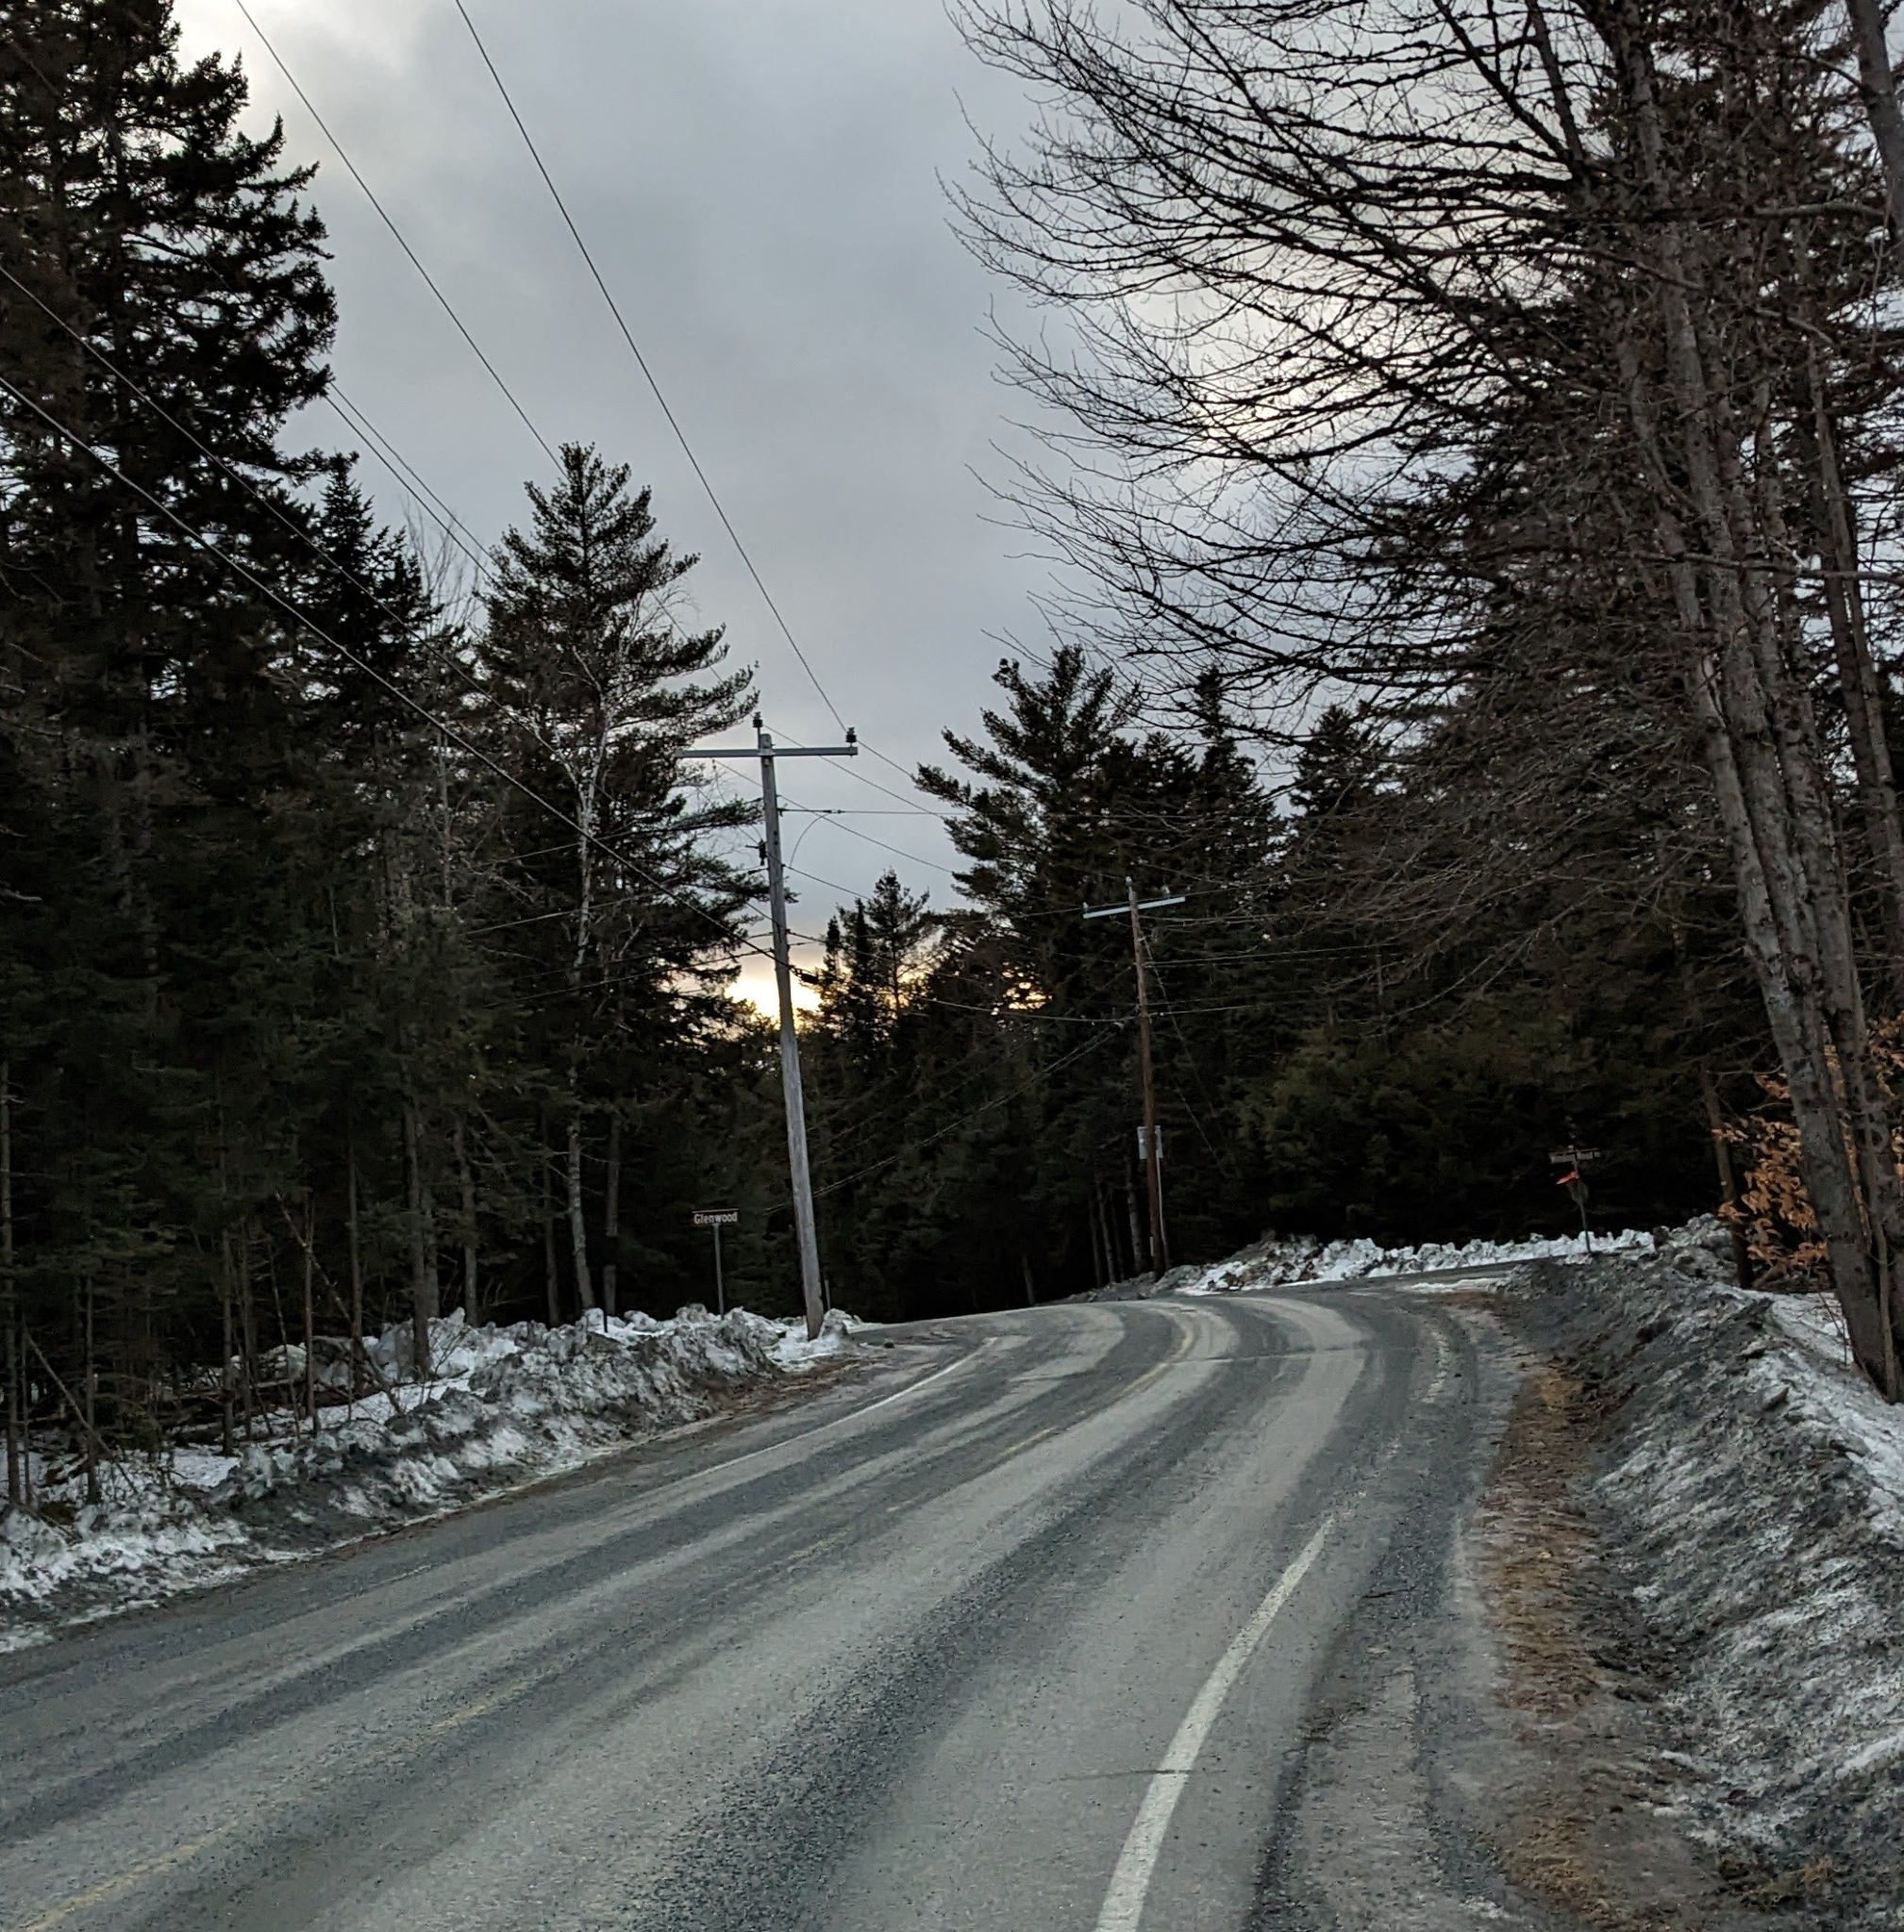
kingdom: Plantae
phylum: Tracheophyta
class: Pinopsida
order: Pinales
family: Pinaceae
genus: Pinus
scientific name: Pinus strobus
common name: Weymouth pine
